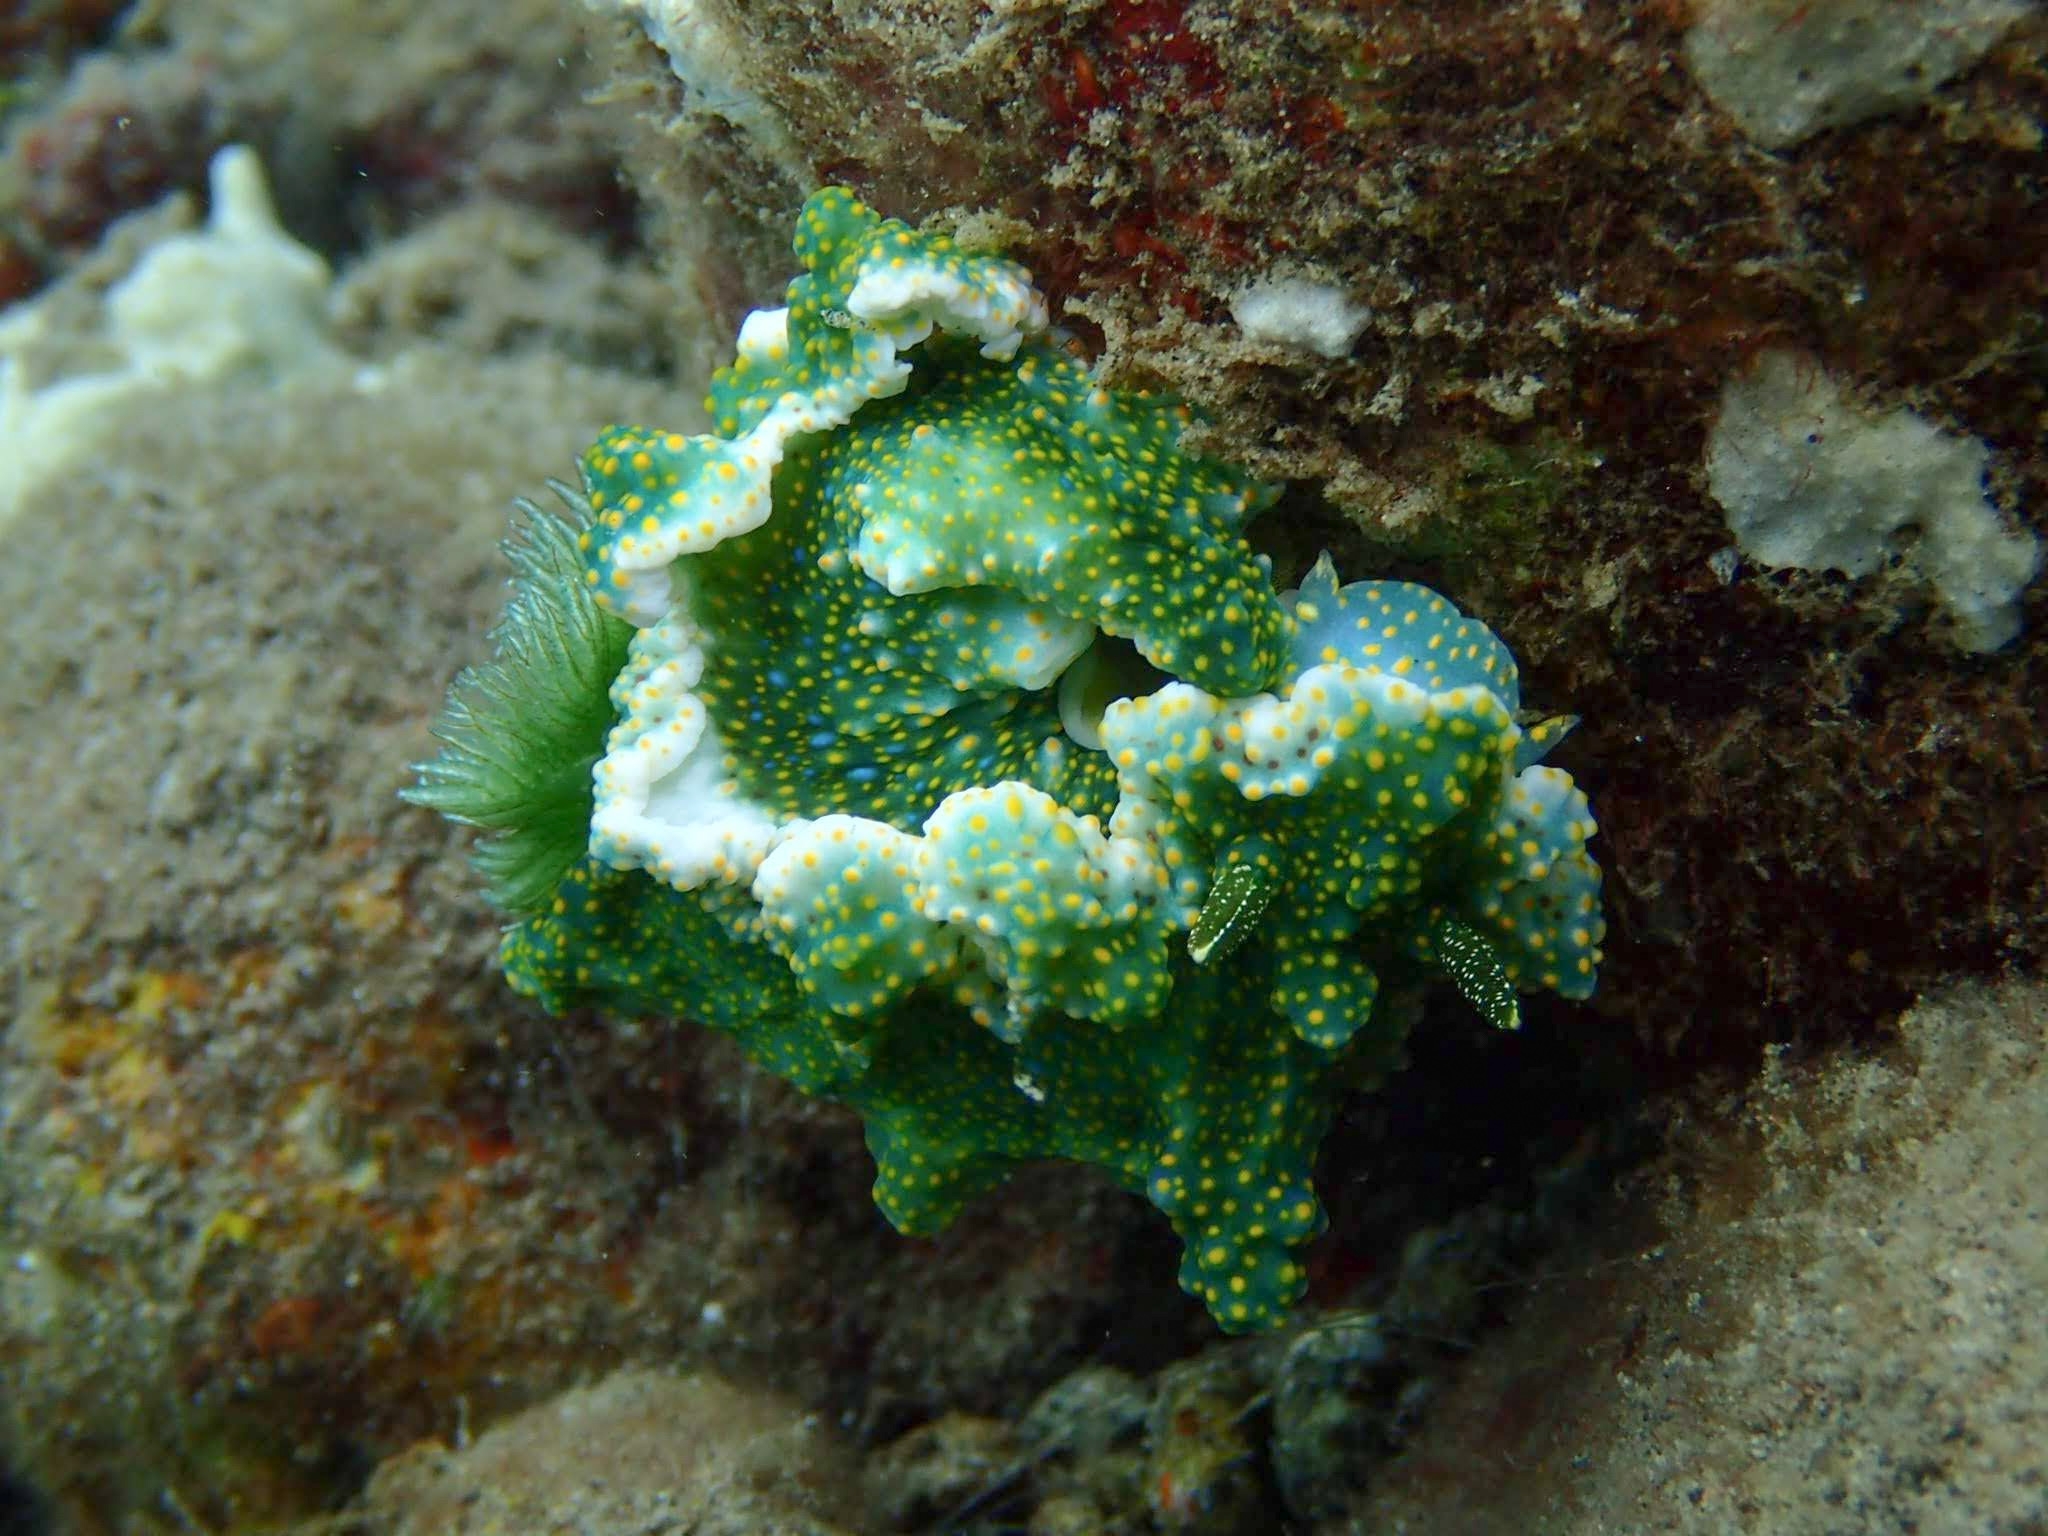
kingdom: Animalia
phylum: Mollusca
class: Gastropoda
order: Nudibranchia
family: Chromodorididae
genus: Miamira
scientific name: Miamira sinuata
